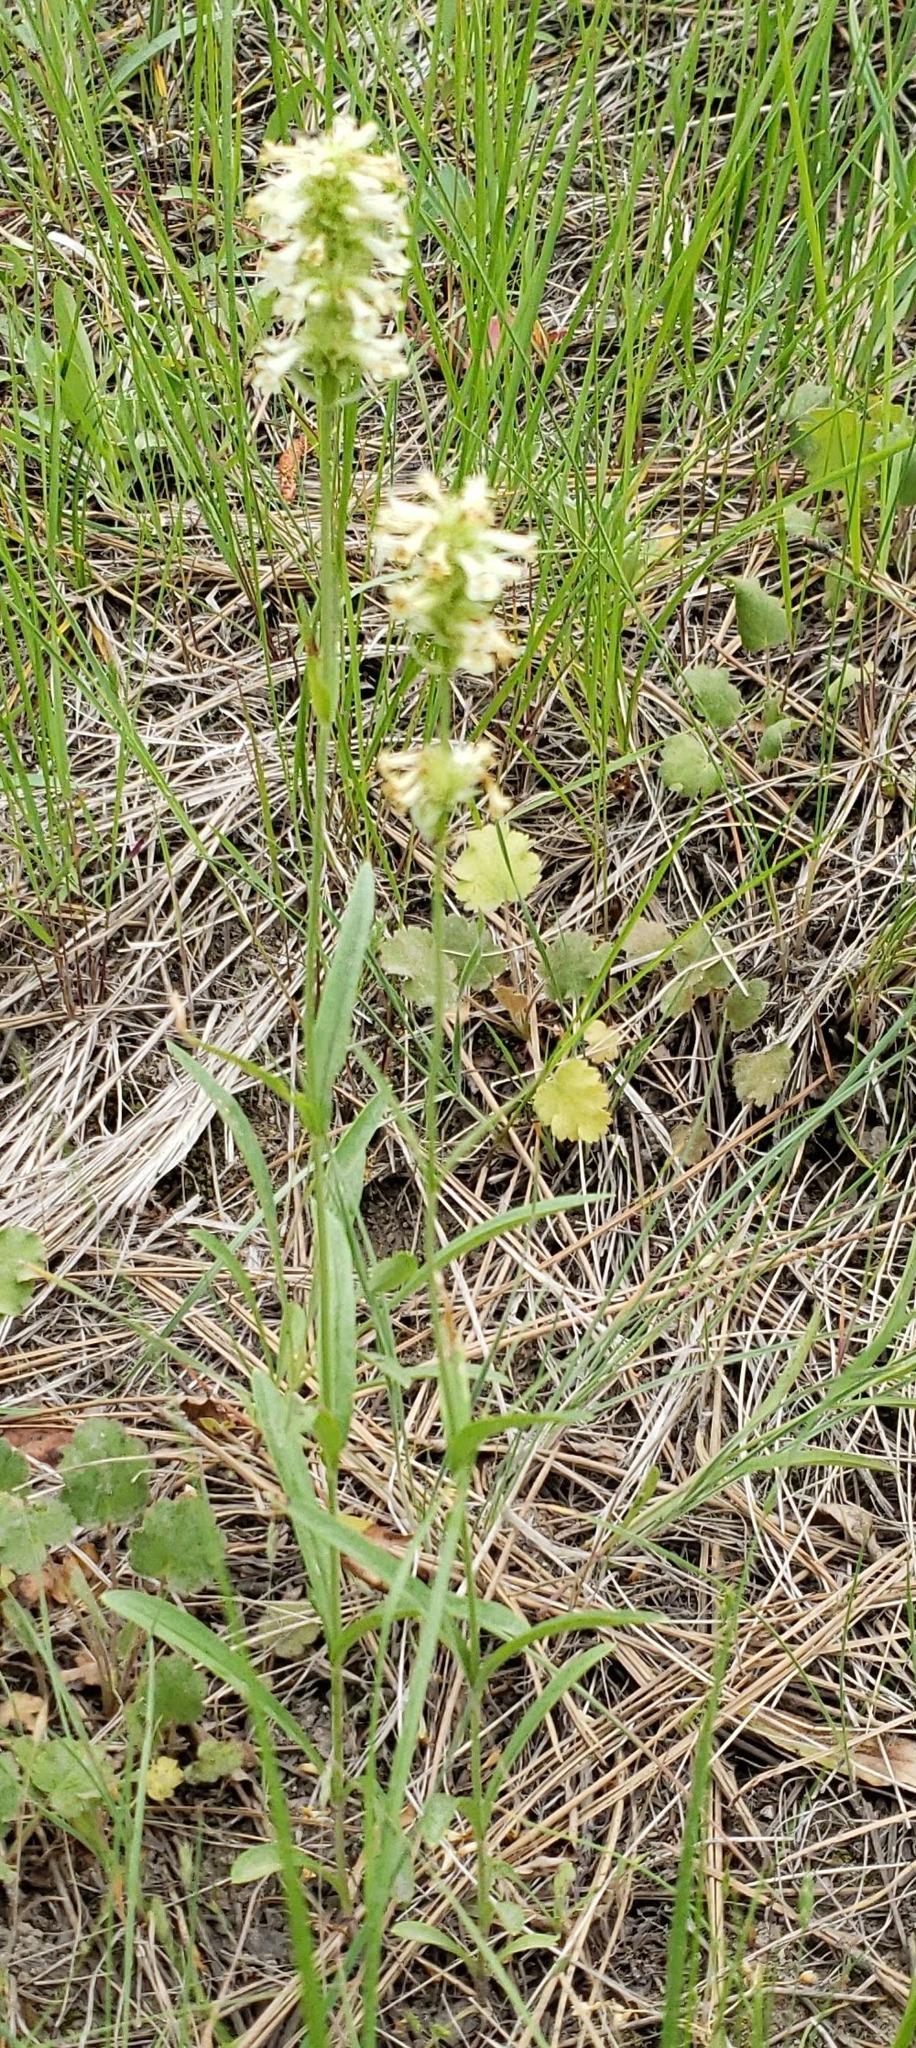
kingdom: Plantae
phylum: Tracheophyta
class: Magnoliopsida
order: Lamiales
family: Plantaginaceae
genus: Penstemon
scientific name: Penstemon confertus
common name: Lesser yellow beardtongue
